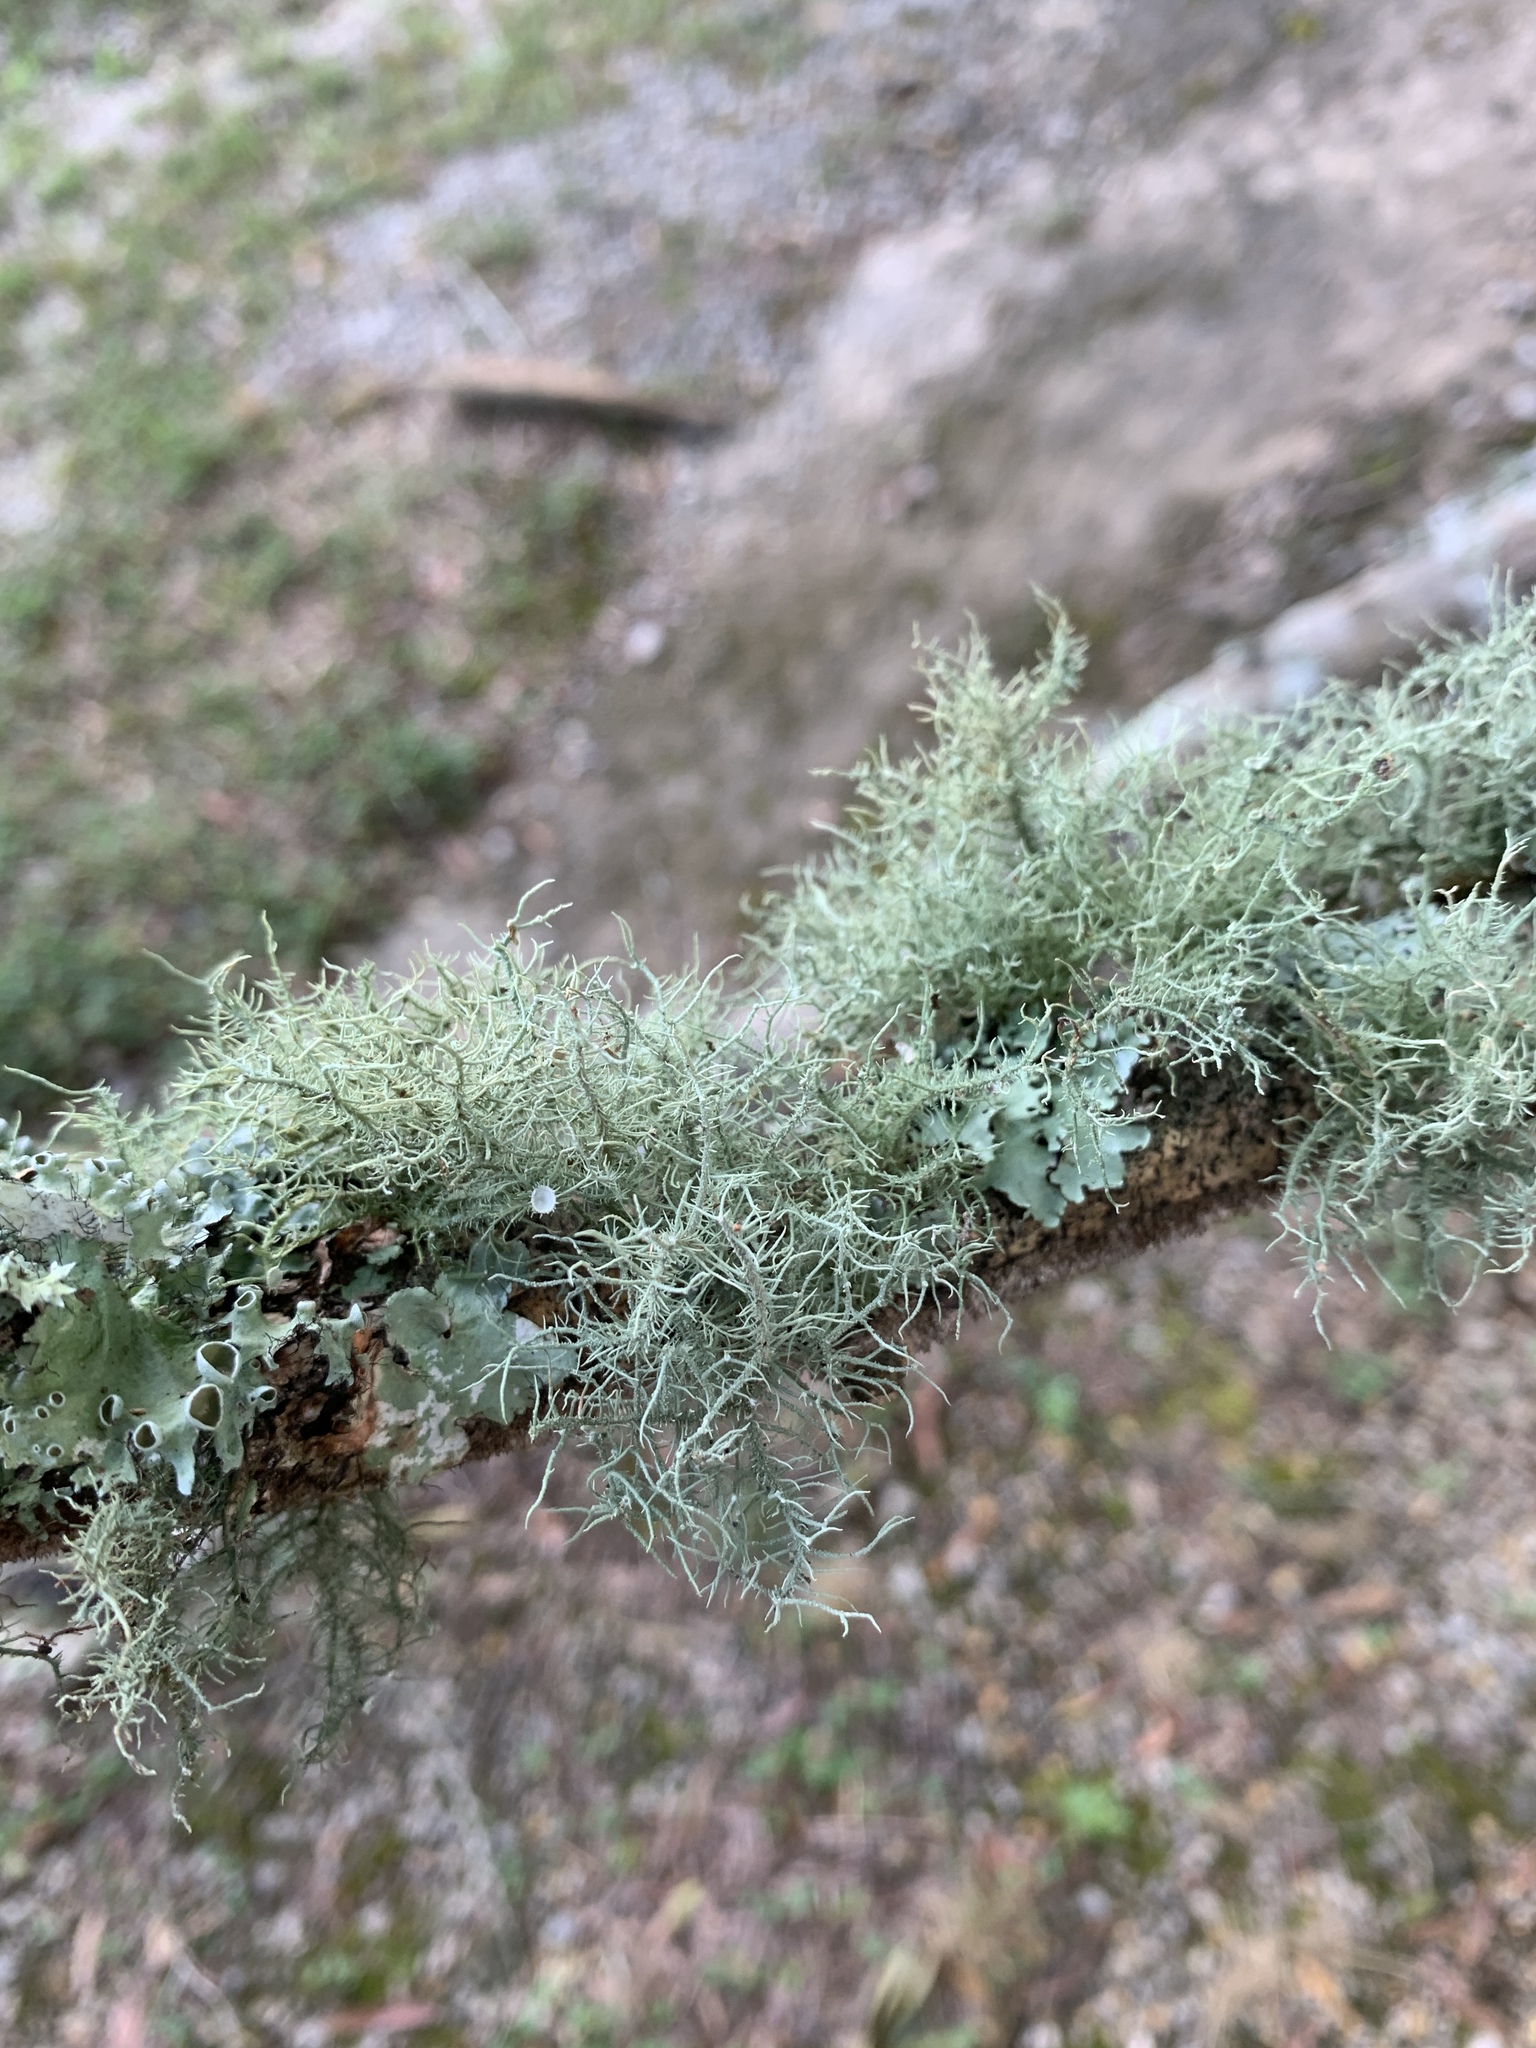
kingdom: Fungi
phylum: Ascomycota
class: Lecanoromycetes
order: Lecanorales
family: Parmeliaceae
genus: Usnea
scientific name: Usnea strigosa
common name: Bushy beard lichen
